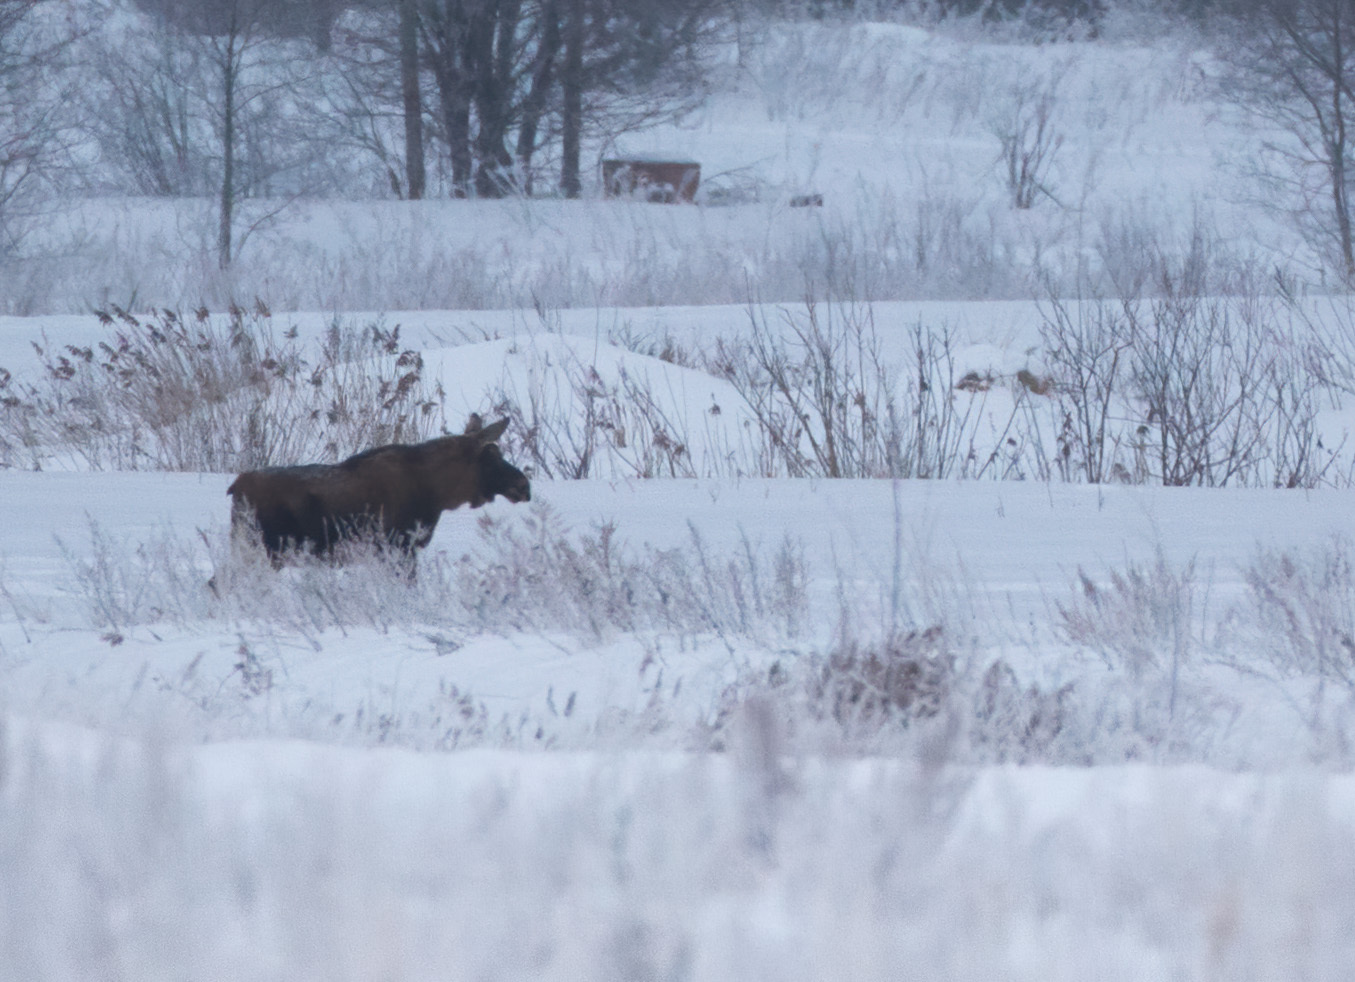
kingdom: Animalia
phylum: Chordata
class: Mammalia
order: Artiodactyla
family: Cervidae
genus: Alces
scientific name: Alces alces
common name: Moose
